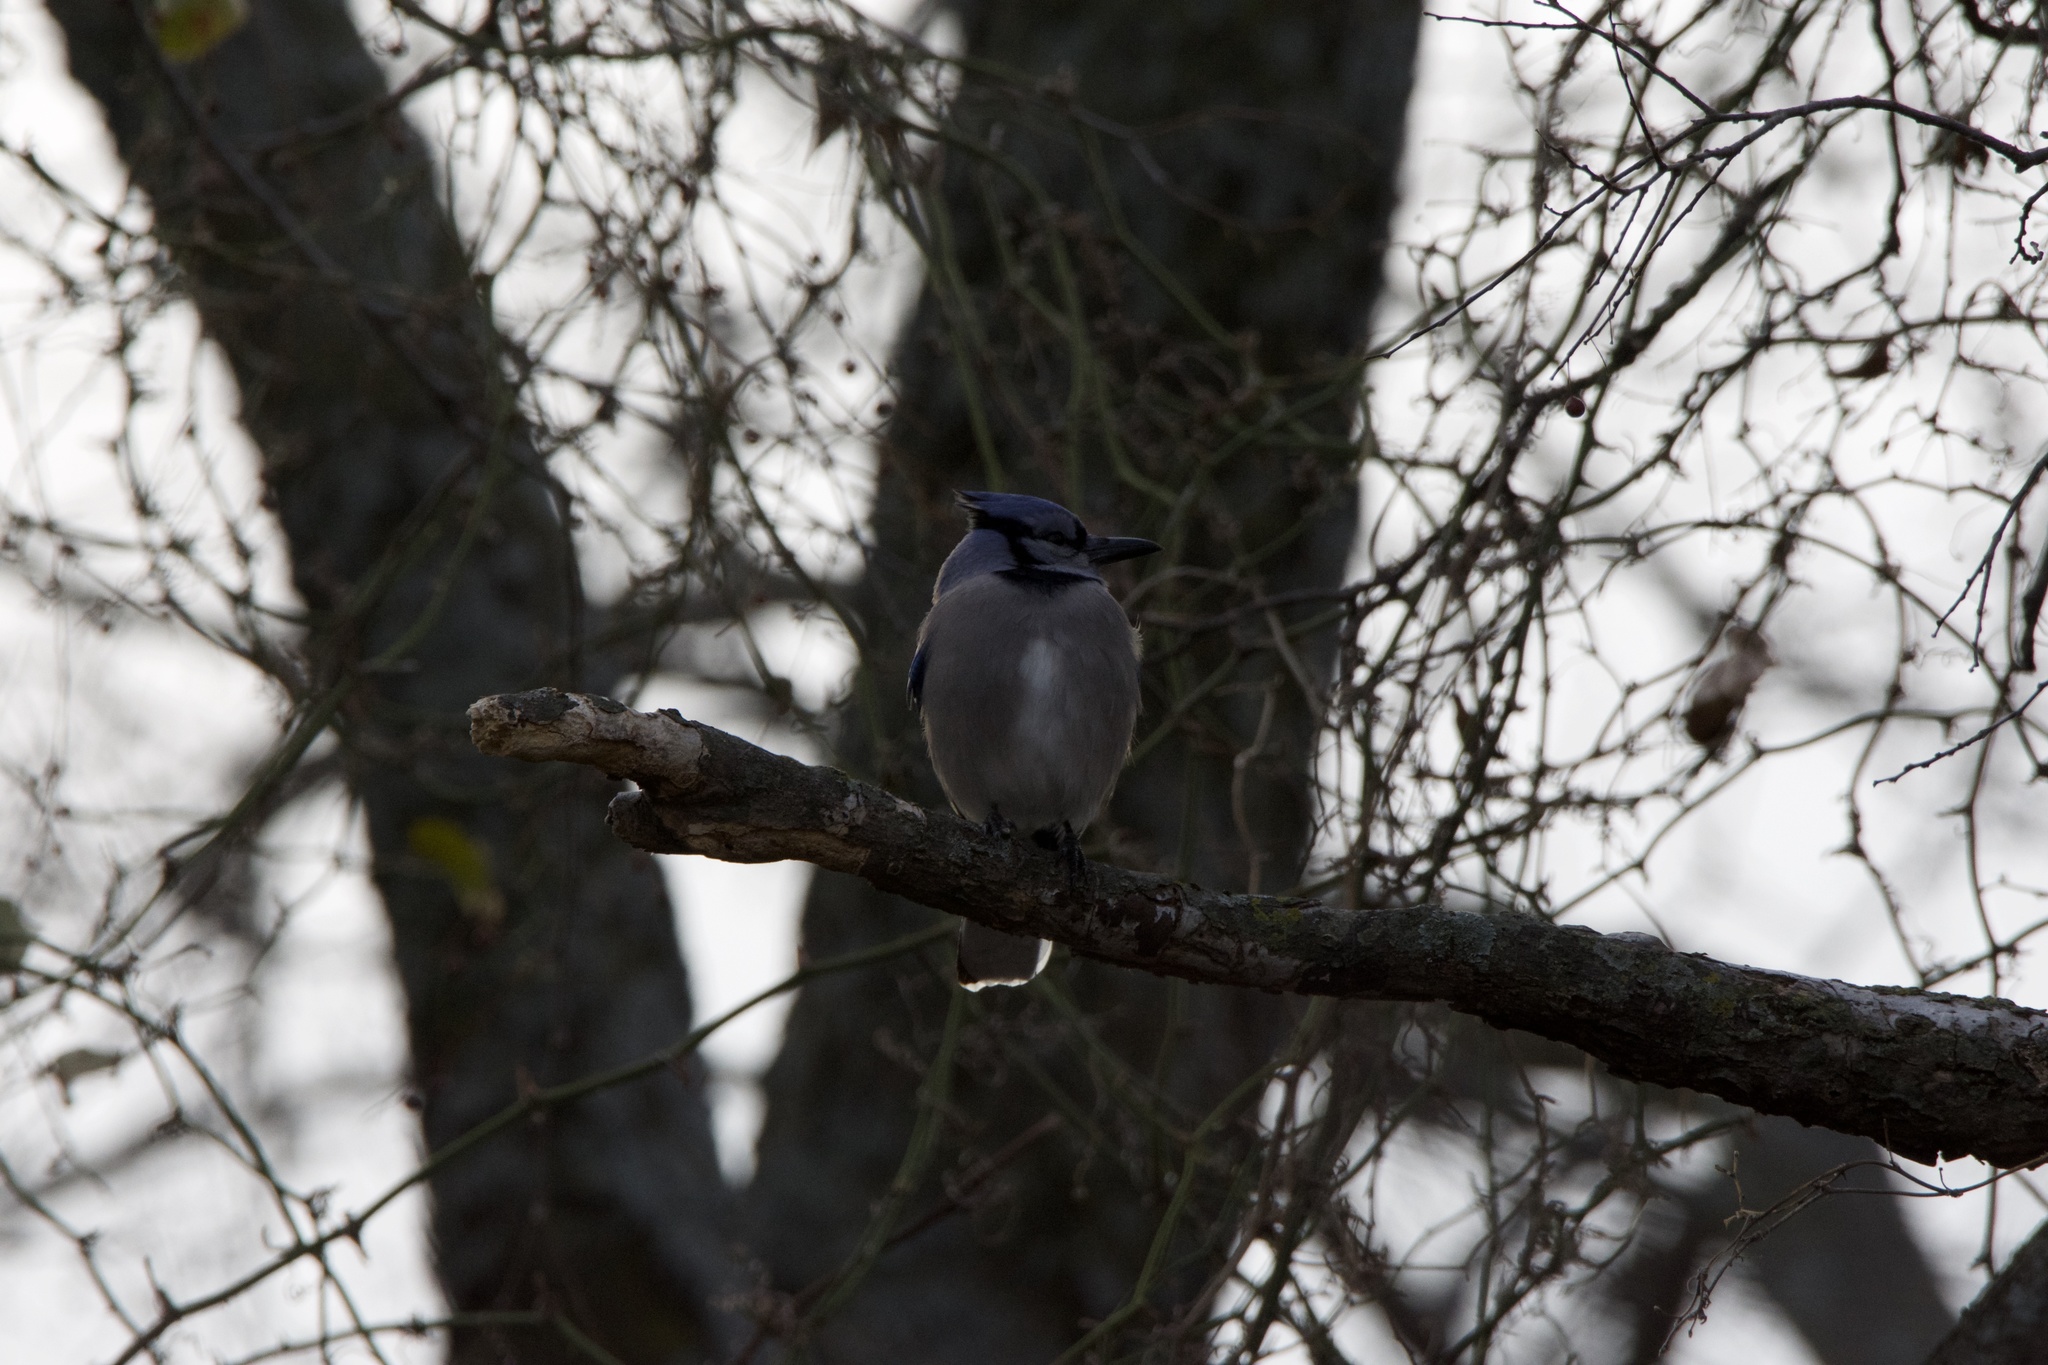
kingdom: Animalia
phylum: Chordata
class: Aves
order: Passeriformes
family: Corvidae
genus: Cyanocitta
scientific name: Cyanocitta cristata
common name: Blue jay
